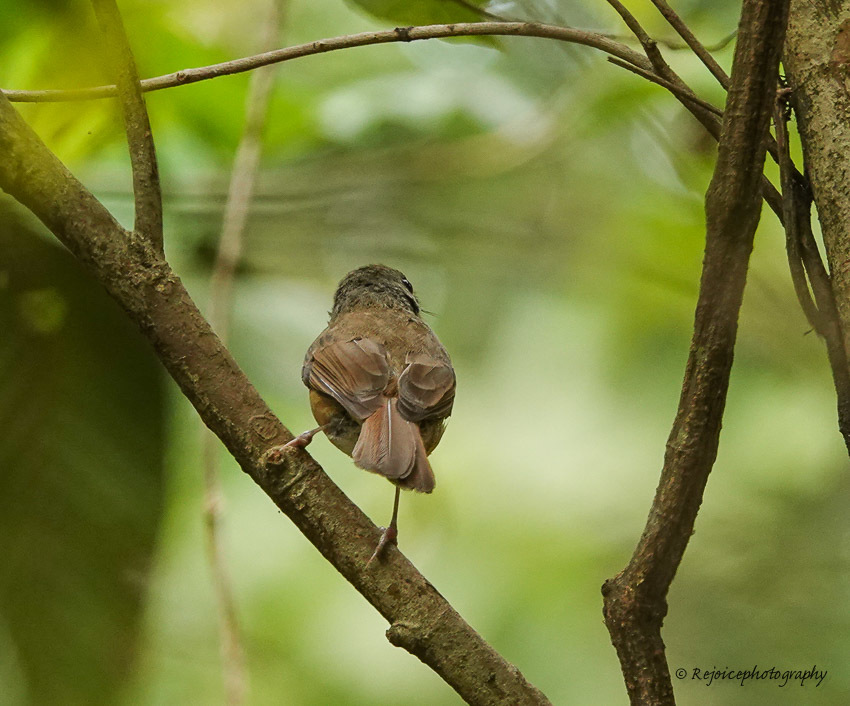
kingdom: Animalia
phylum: Chordata
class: Aves
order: Passeriformes
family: Muscicapidae
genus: Cyornis
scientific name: Cyornis poliogenys
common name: Pale-chinned blue flycatcher
